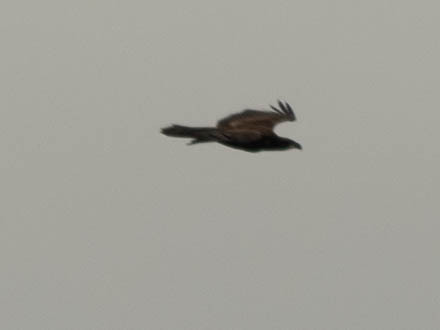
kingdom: Animalia
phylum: Chordata
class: Aves
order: Accipitriformes
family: Accipitridae
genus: Haliaeetus
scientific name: Haliaeetus leucocephalus
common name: Bald eagle
